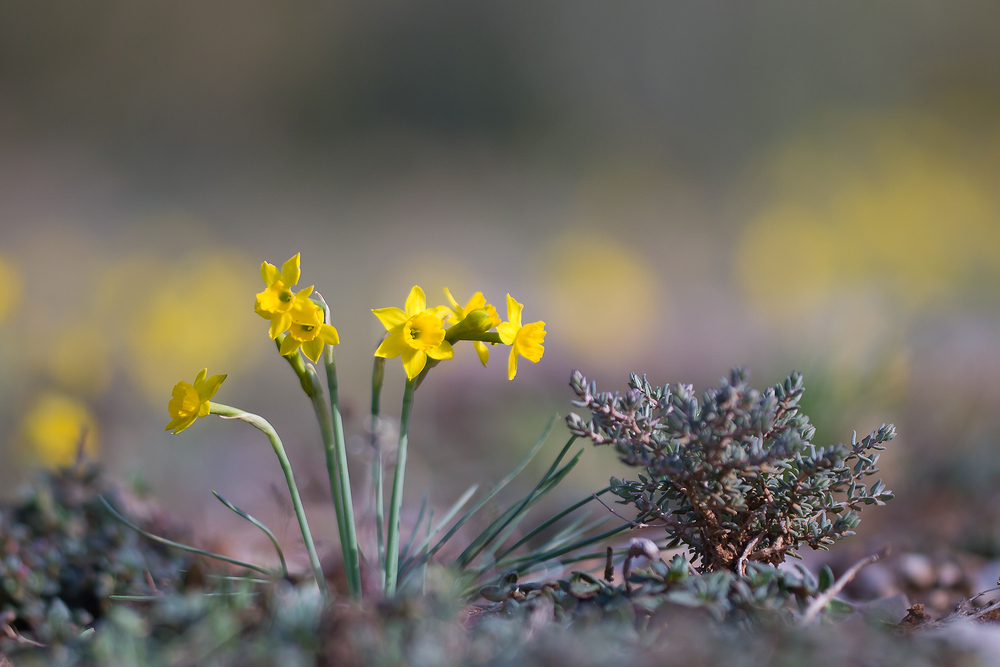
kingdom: Plantae
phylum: Tracheophyta
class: Liliopsida
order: Asparagales
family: Amaryllidaceae
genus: Narcissus
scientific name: Narcissus assoanus
